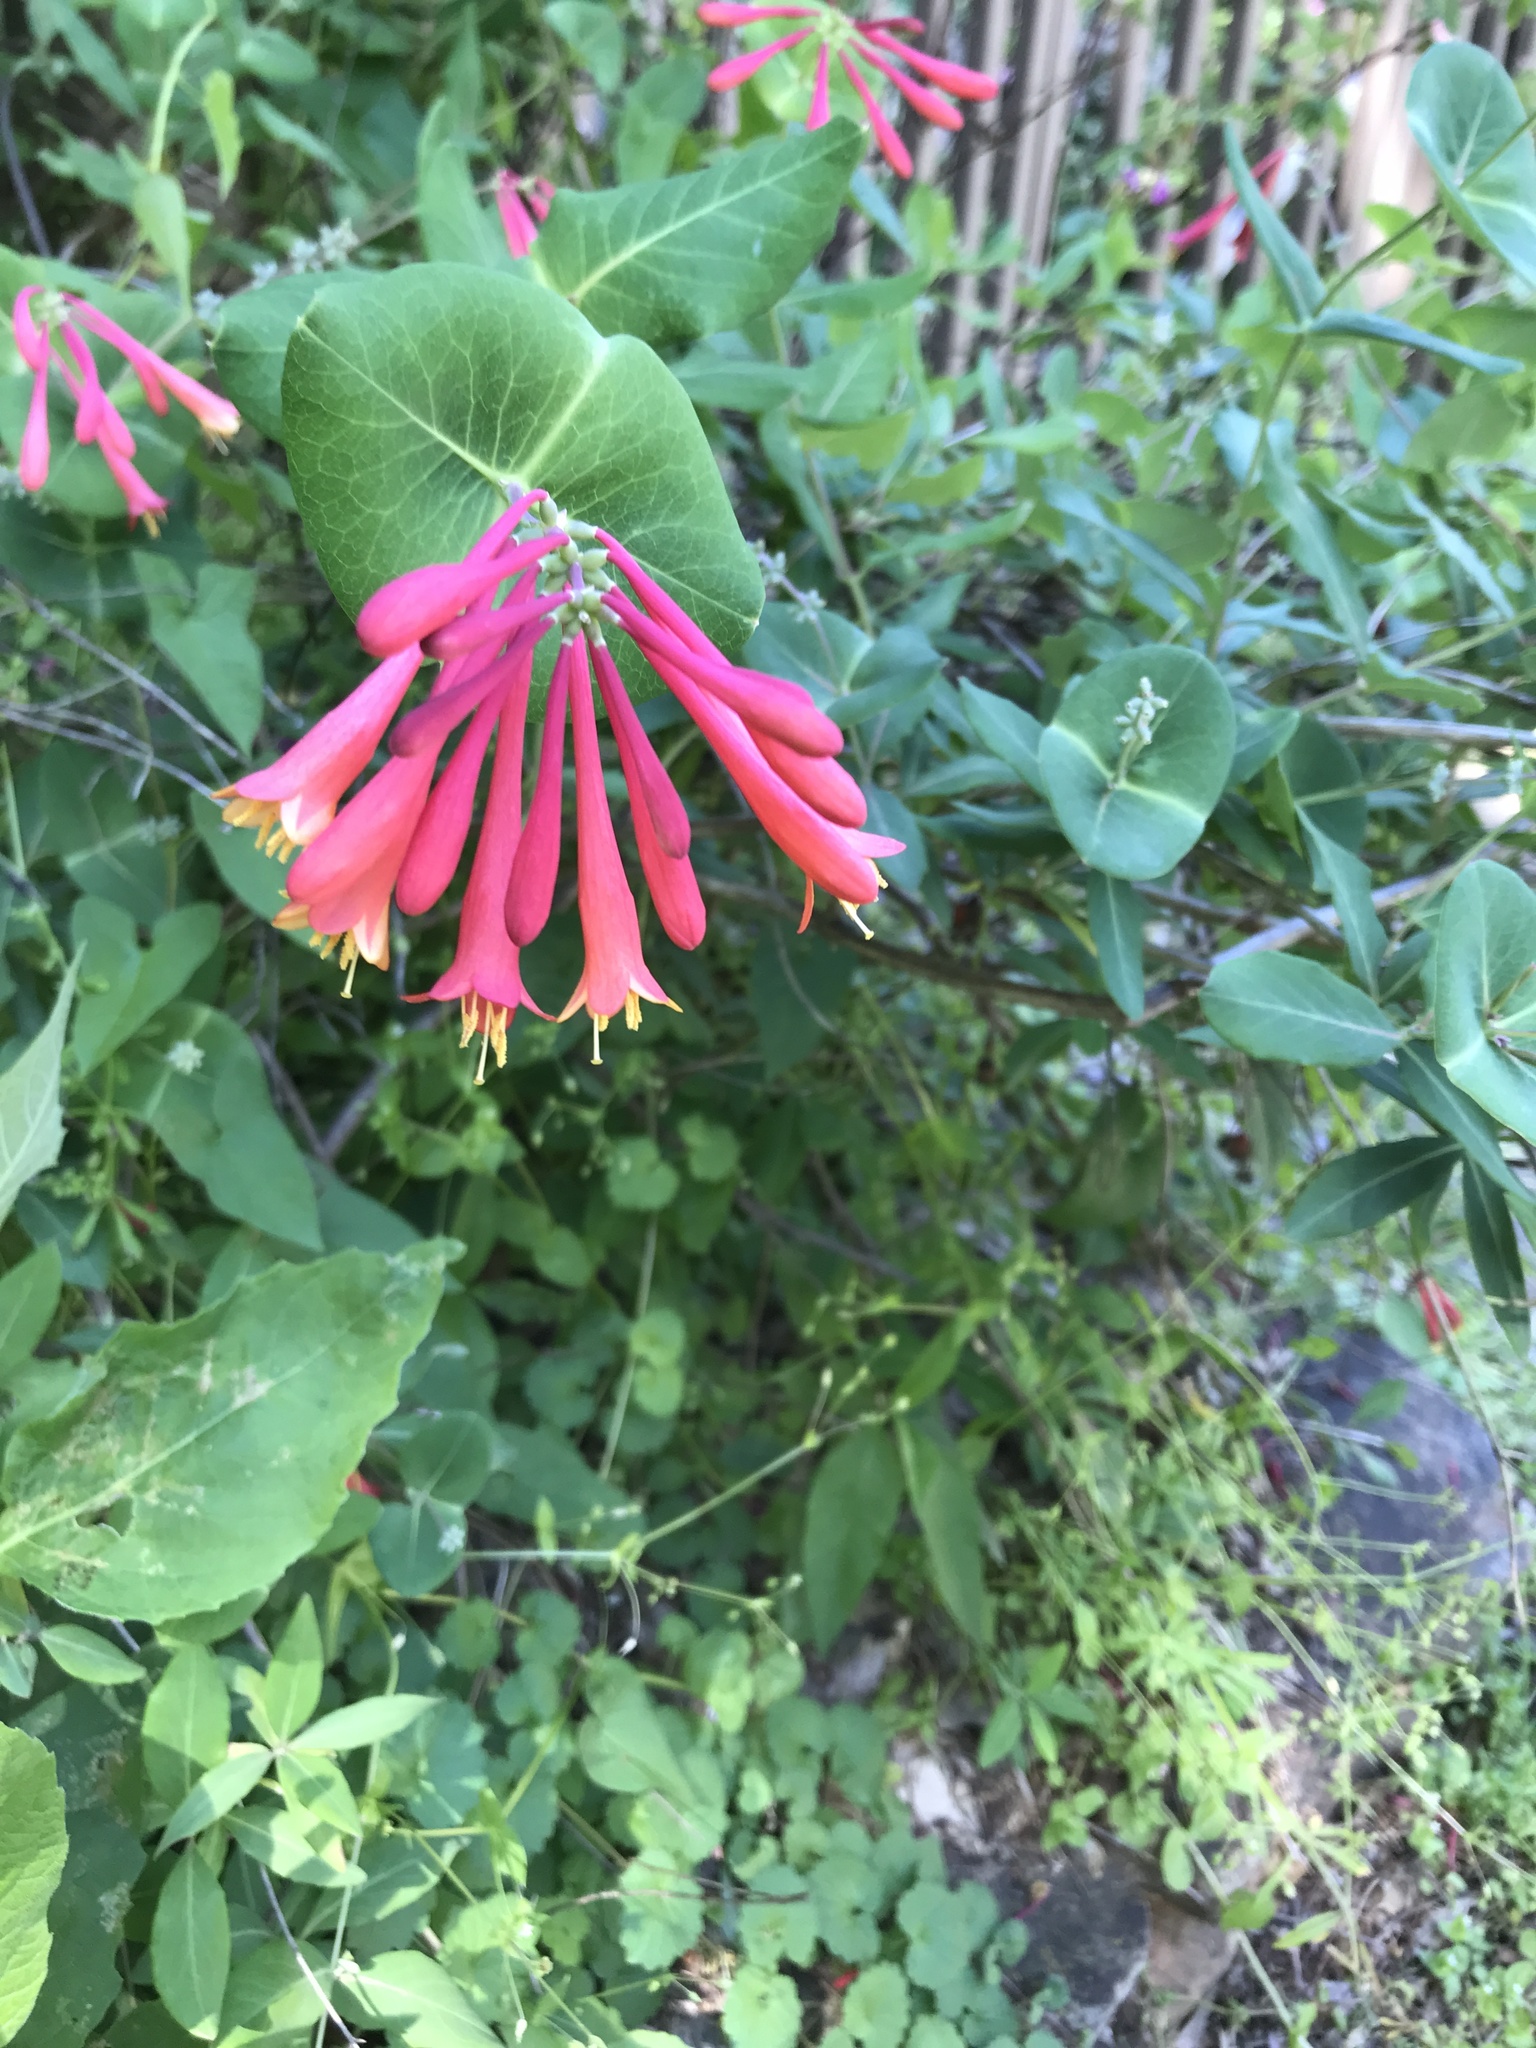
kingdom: Plantae
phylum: Tracheophyta
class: Magnoliopsida
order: Dipsacales
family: Caprifoliaceae
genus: Lonicera
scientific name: Lonicera sempervirens
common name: Coral honeysuckle
